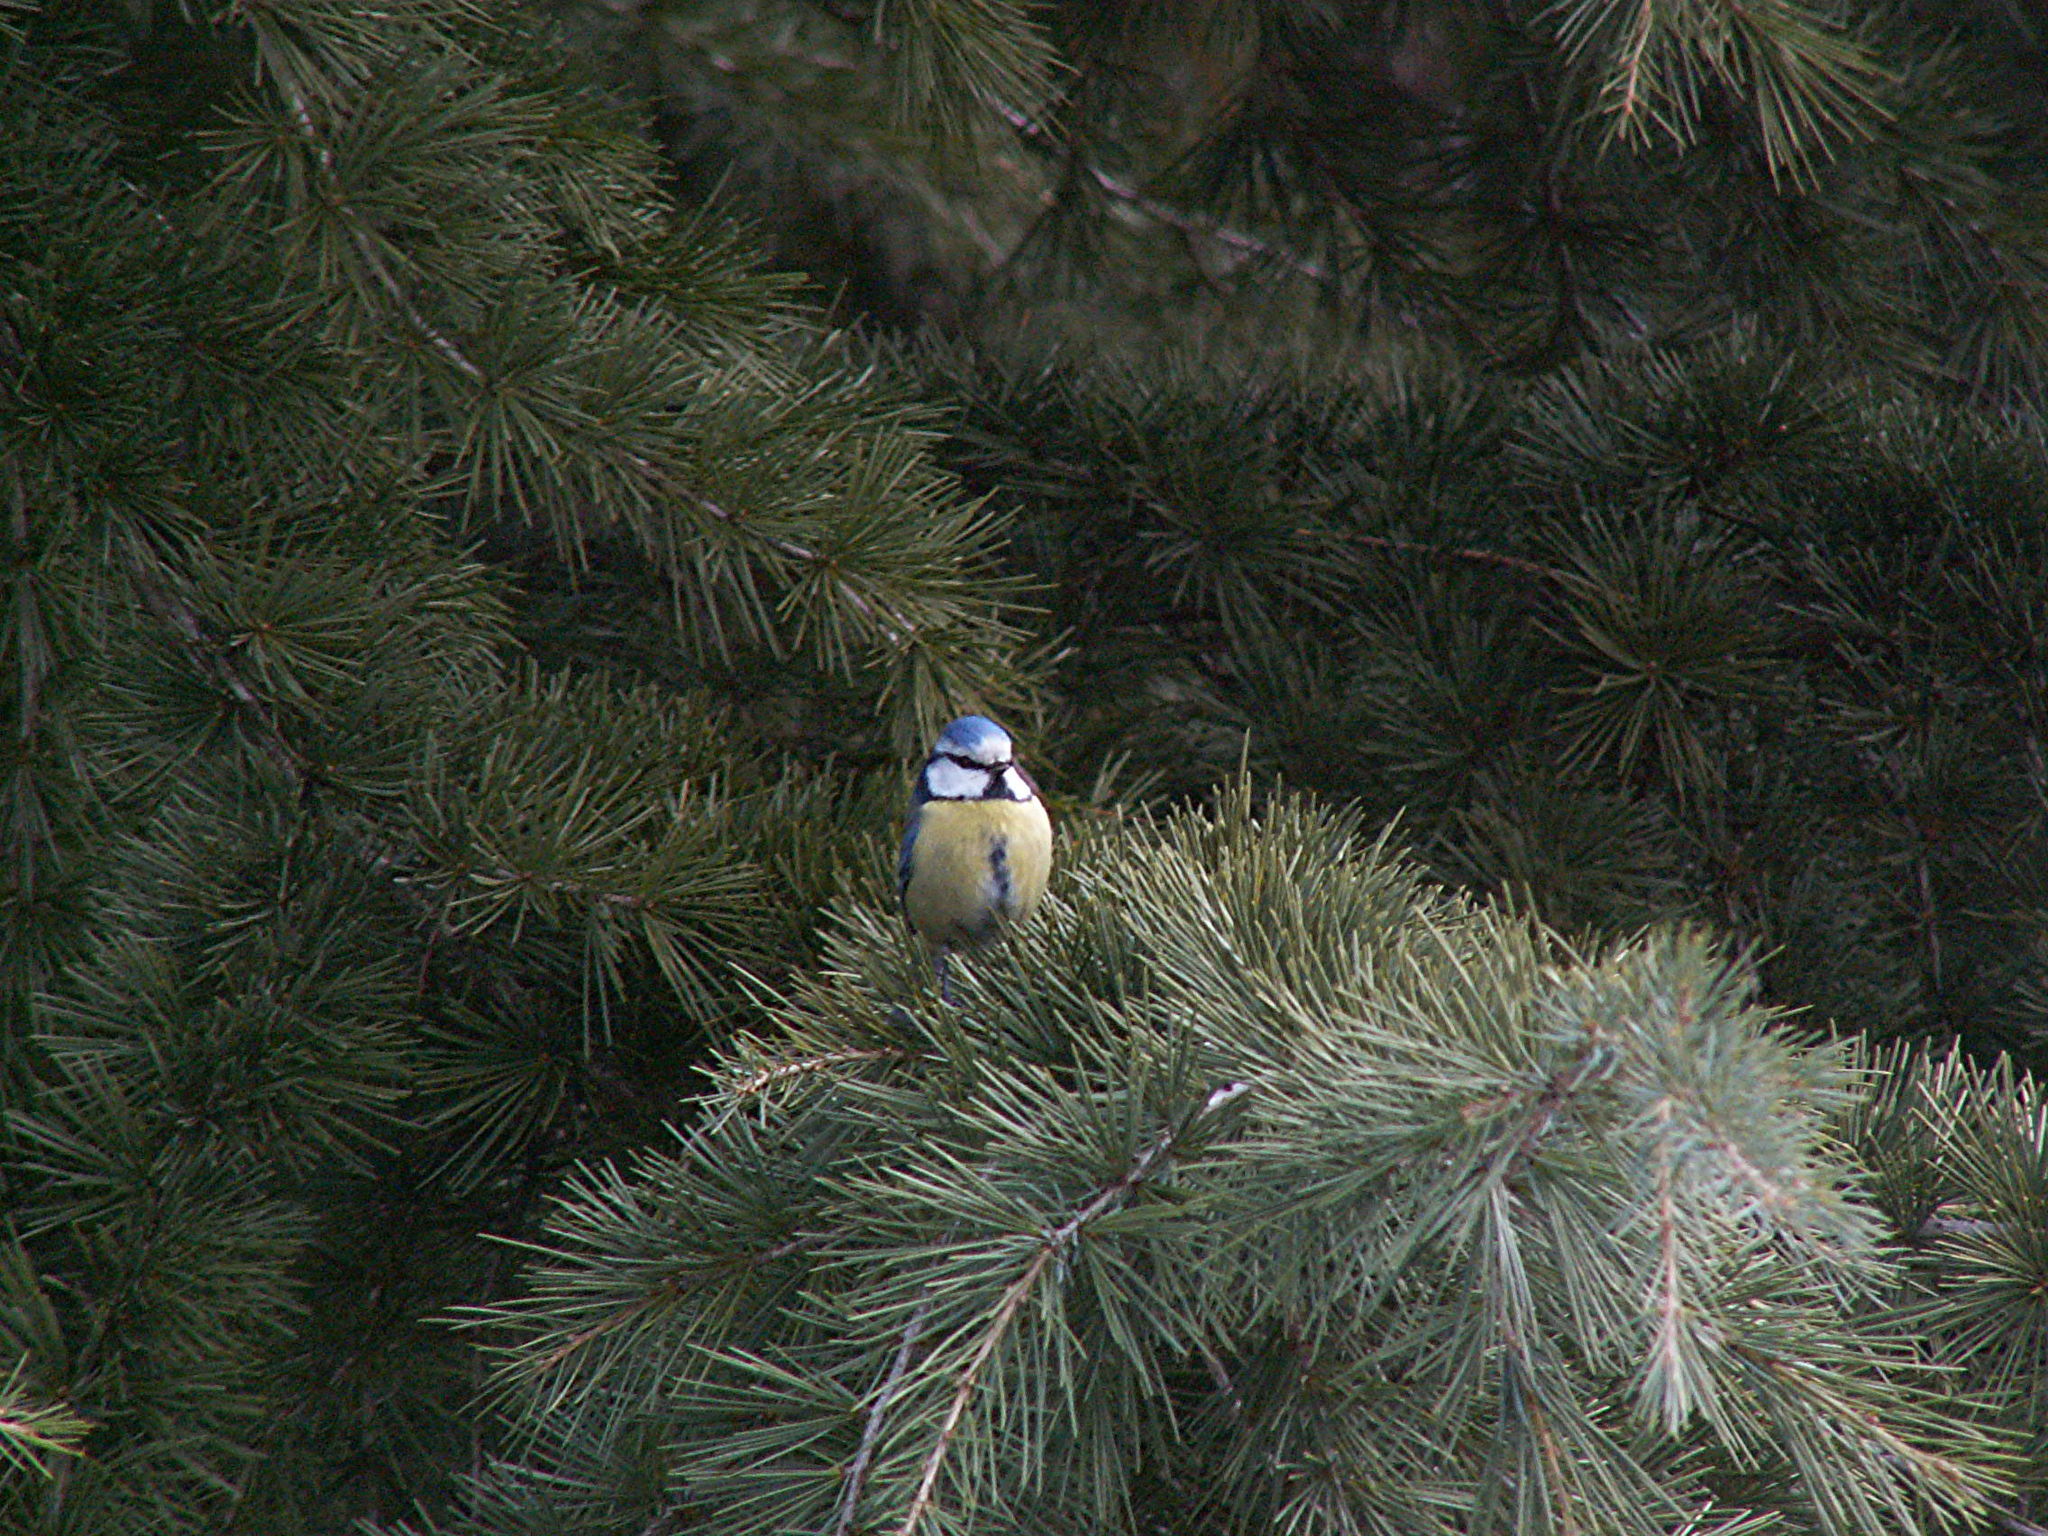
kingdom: Animalia
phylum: Chordata
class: Aves
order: Passeriformes
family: Paridae
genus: Cyanistes
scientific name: Cyanistes caeruleus
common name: Eurasian blue tit
